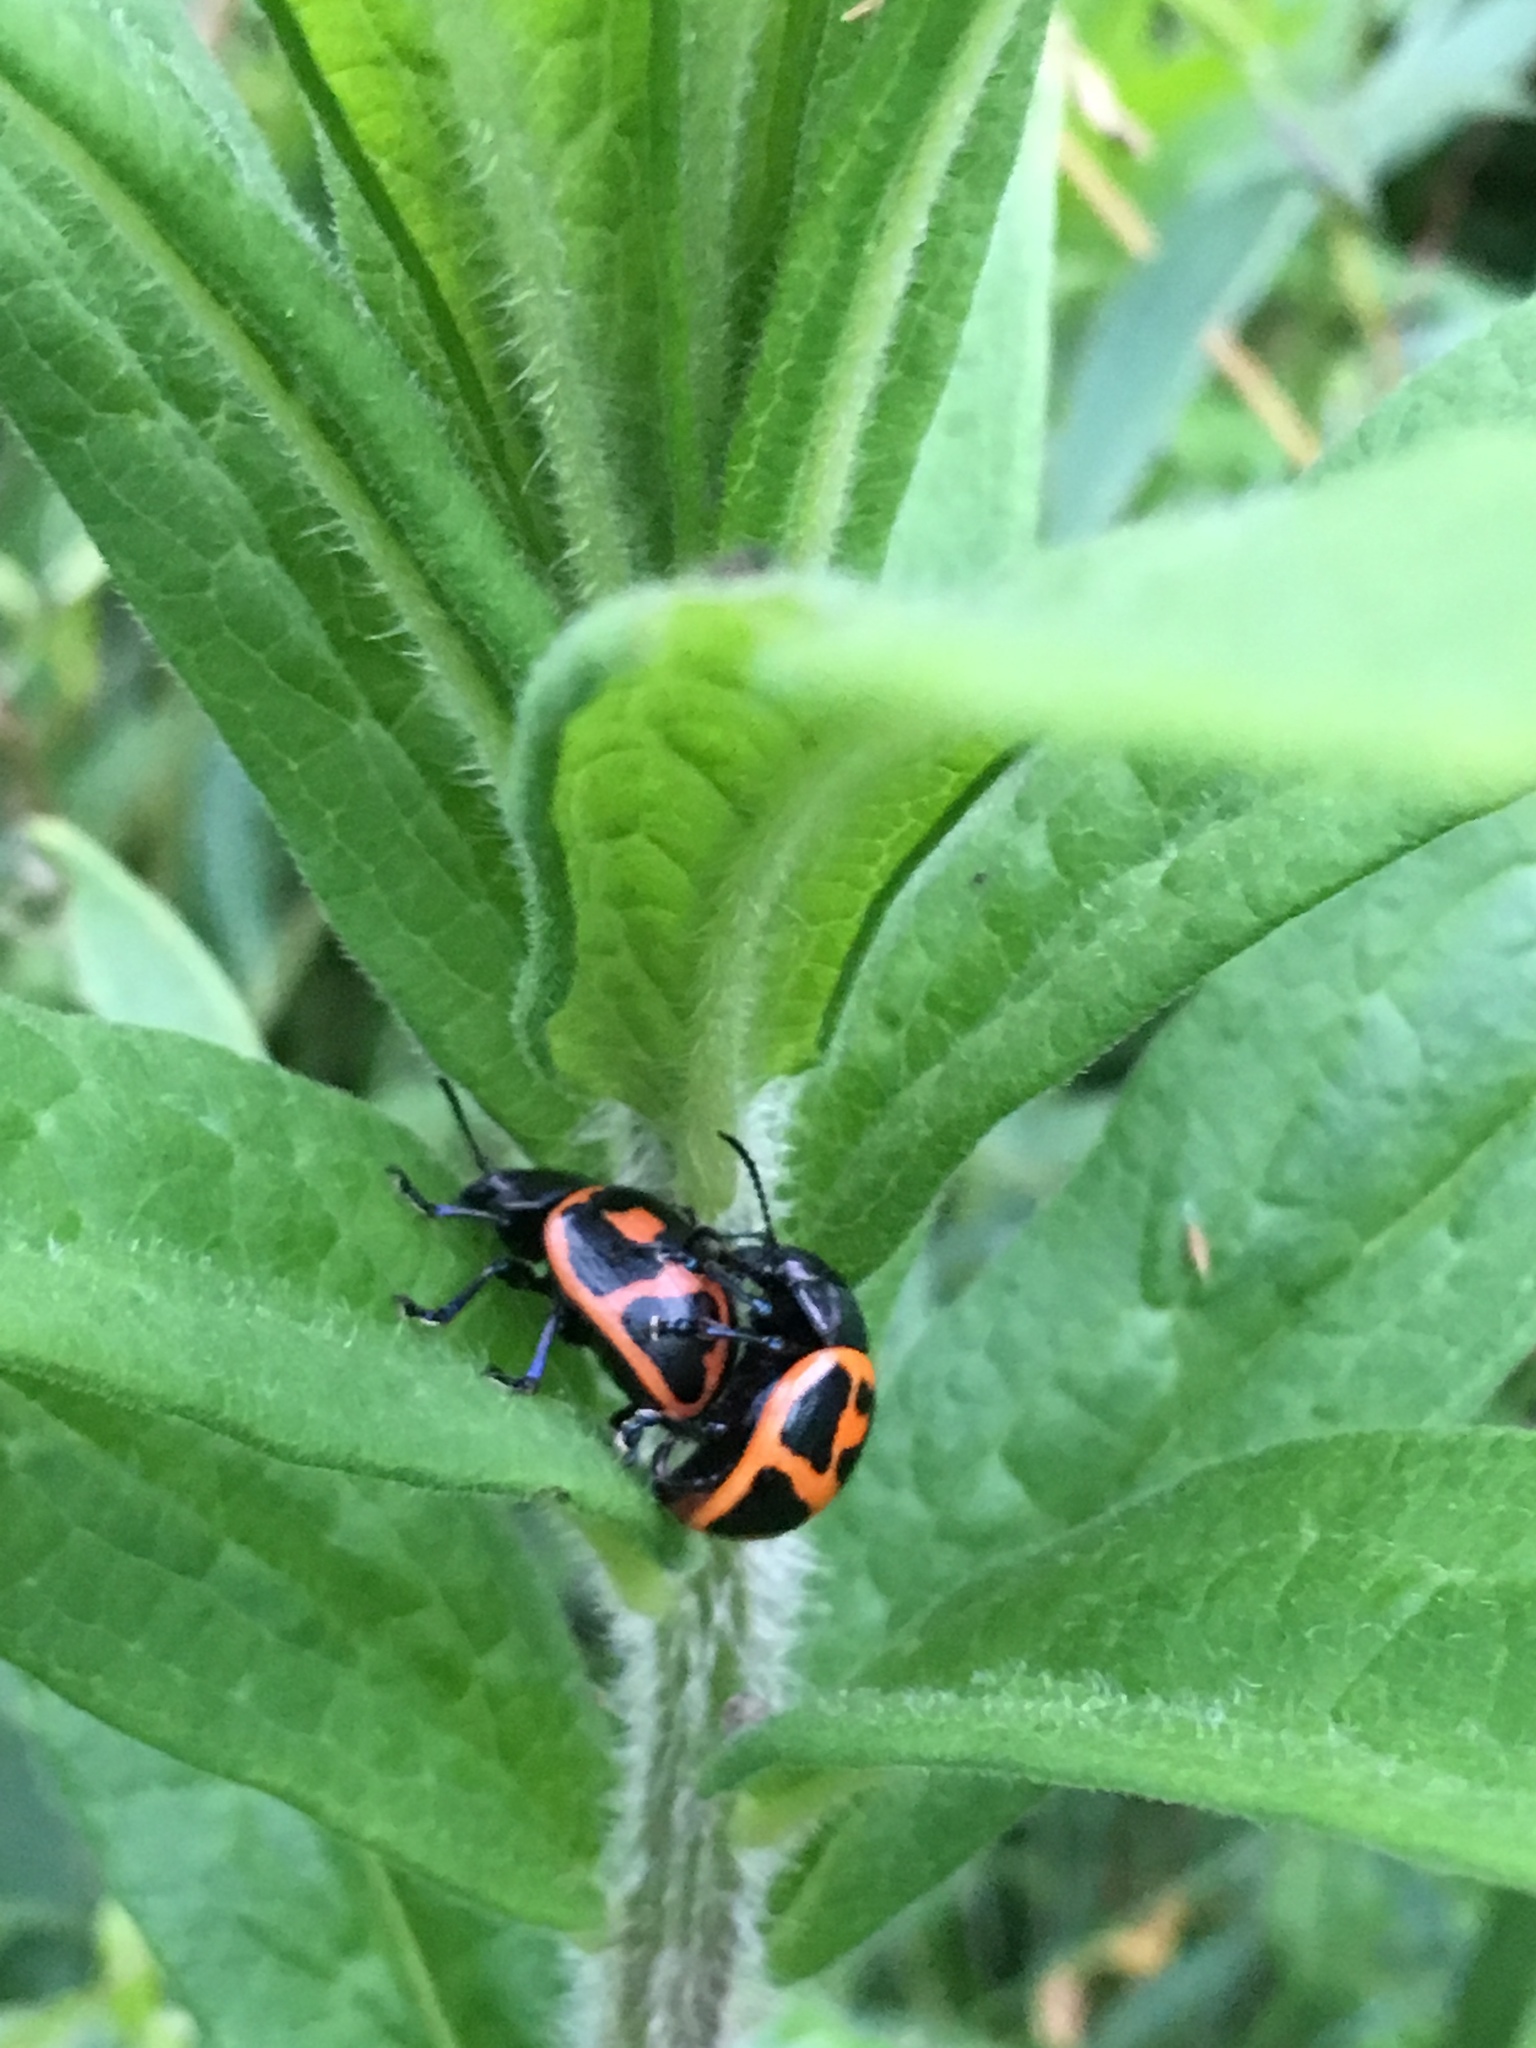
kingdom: Animalia
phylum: Arthropoda
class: Insecta
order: Coleoptera
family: Chrysomelidae
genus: Labidomera
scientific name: Labidomera clivicollis
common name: Swamp milkweed leaf beetle
